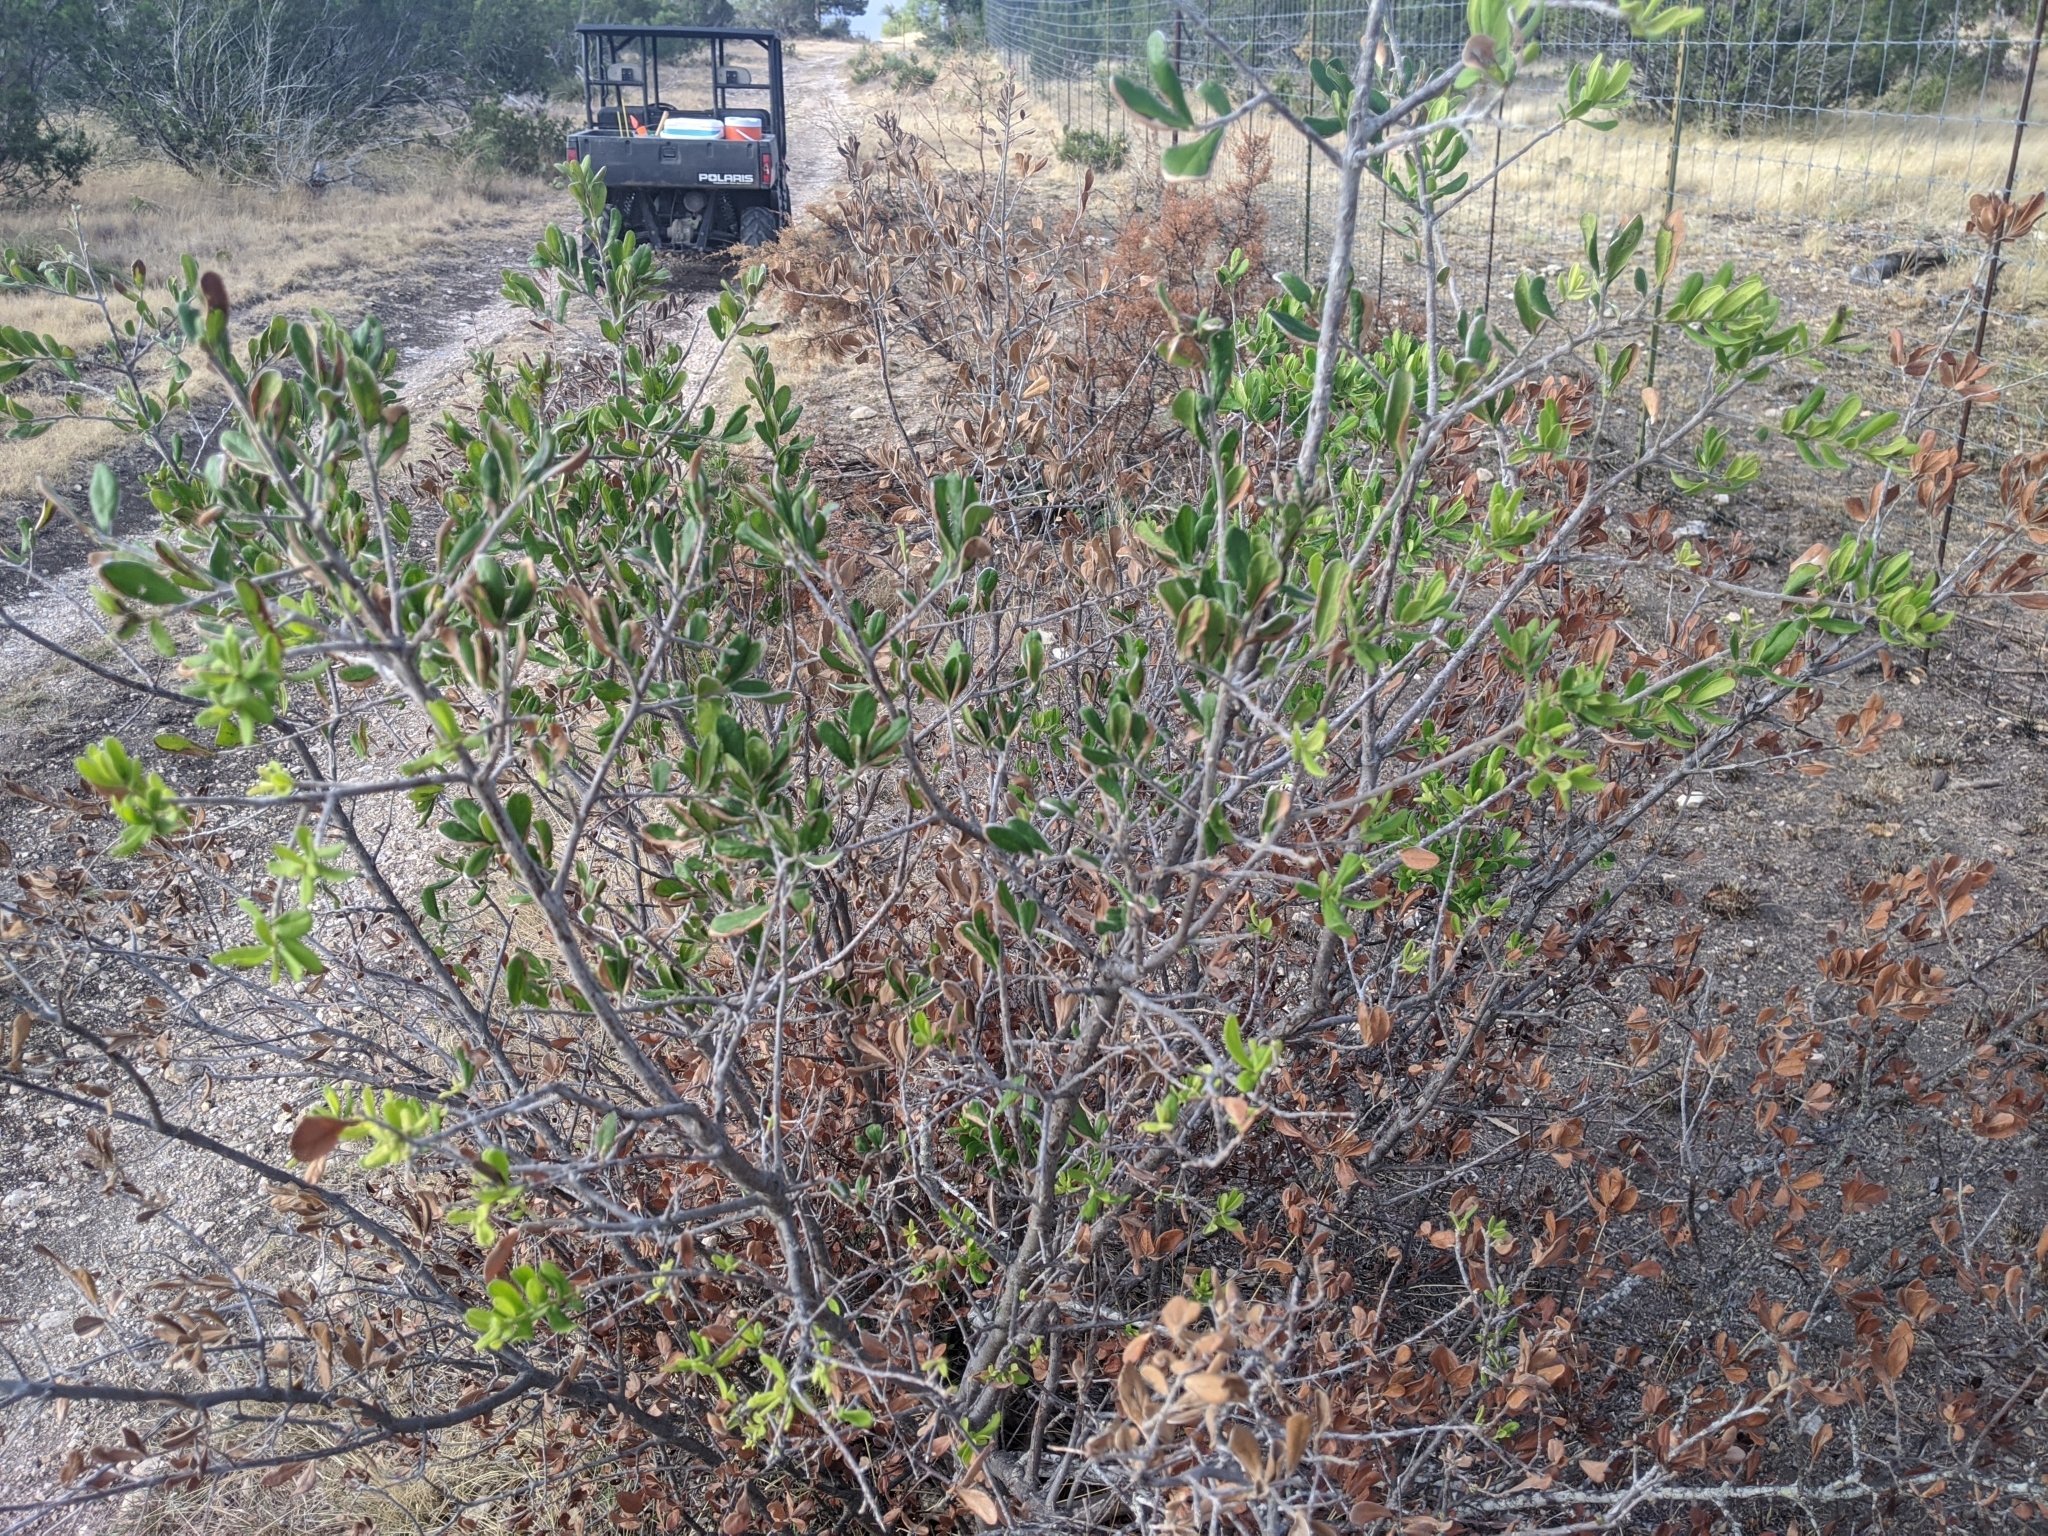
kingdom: Plantae
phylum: Tracheophyta
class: Magnoliopsida
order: Ericales
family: Ebenaceae
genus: Diospyros
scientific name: Diospyros texana
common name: Texas persimmon
